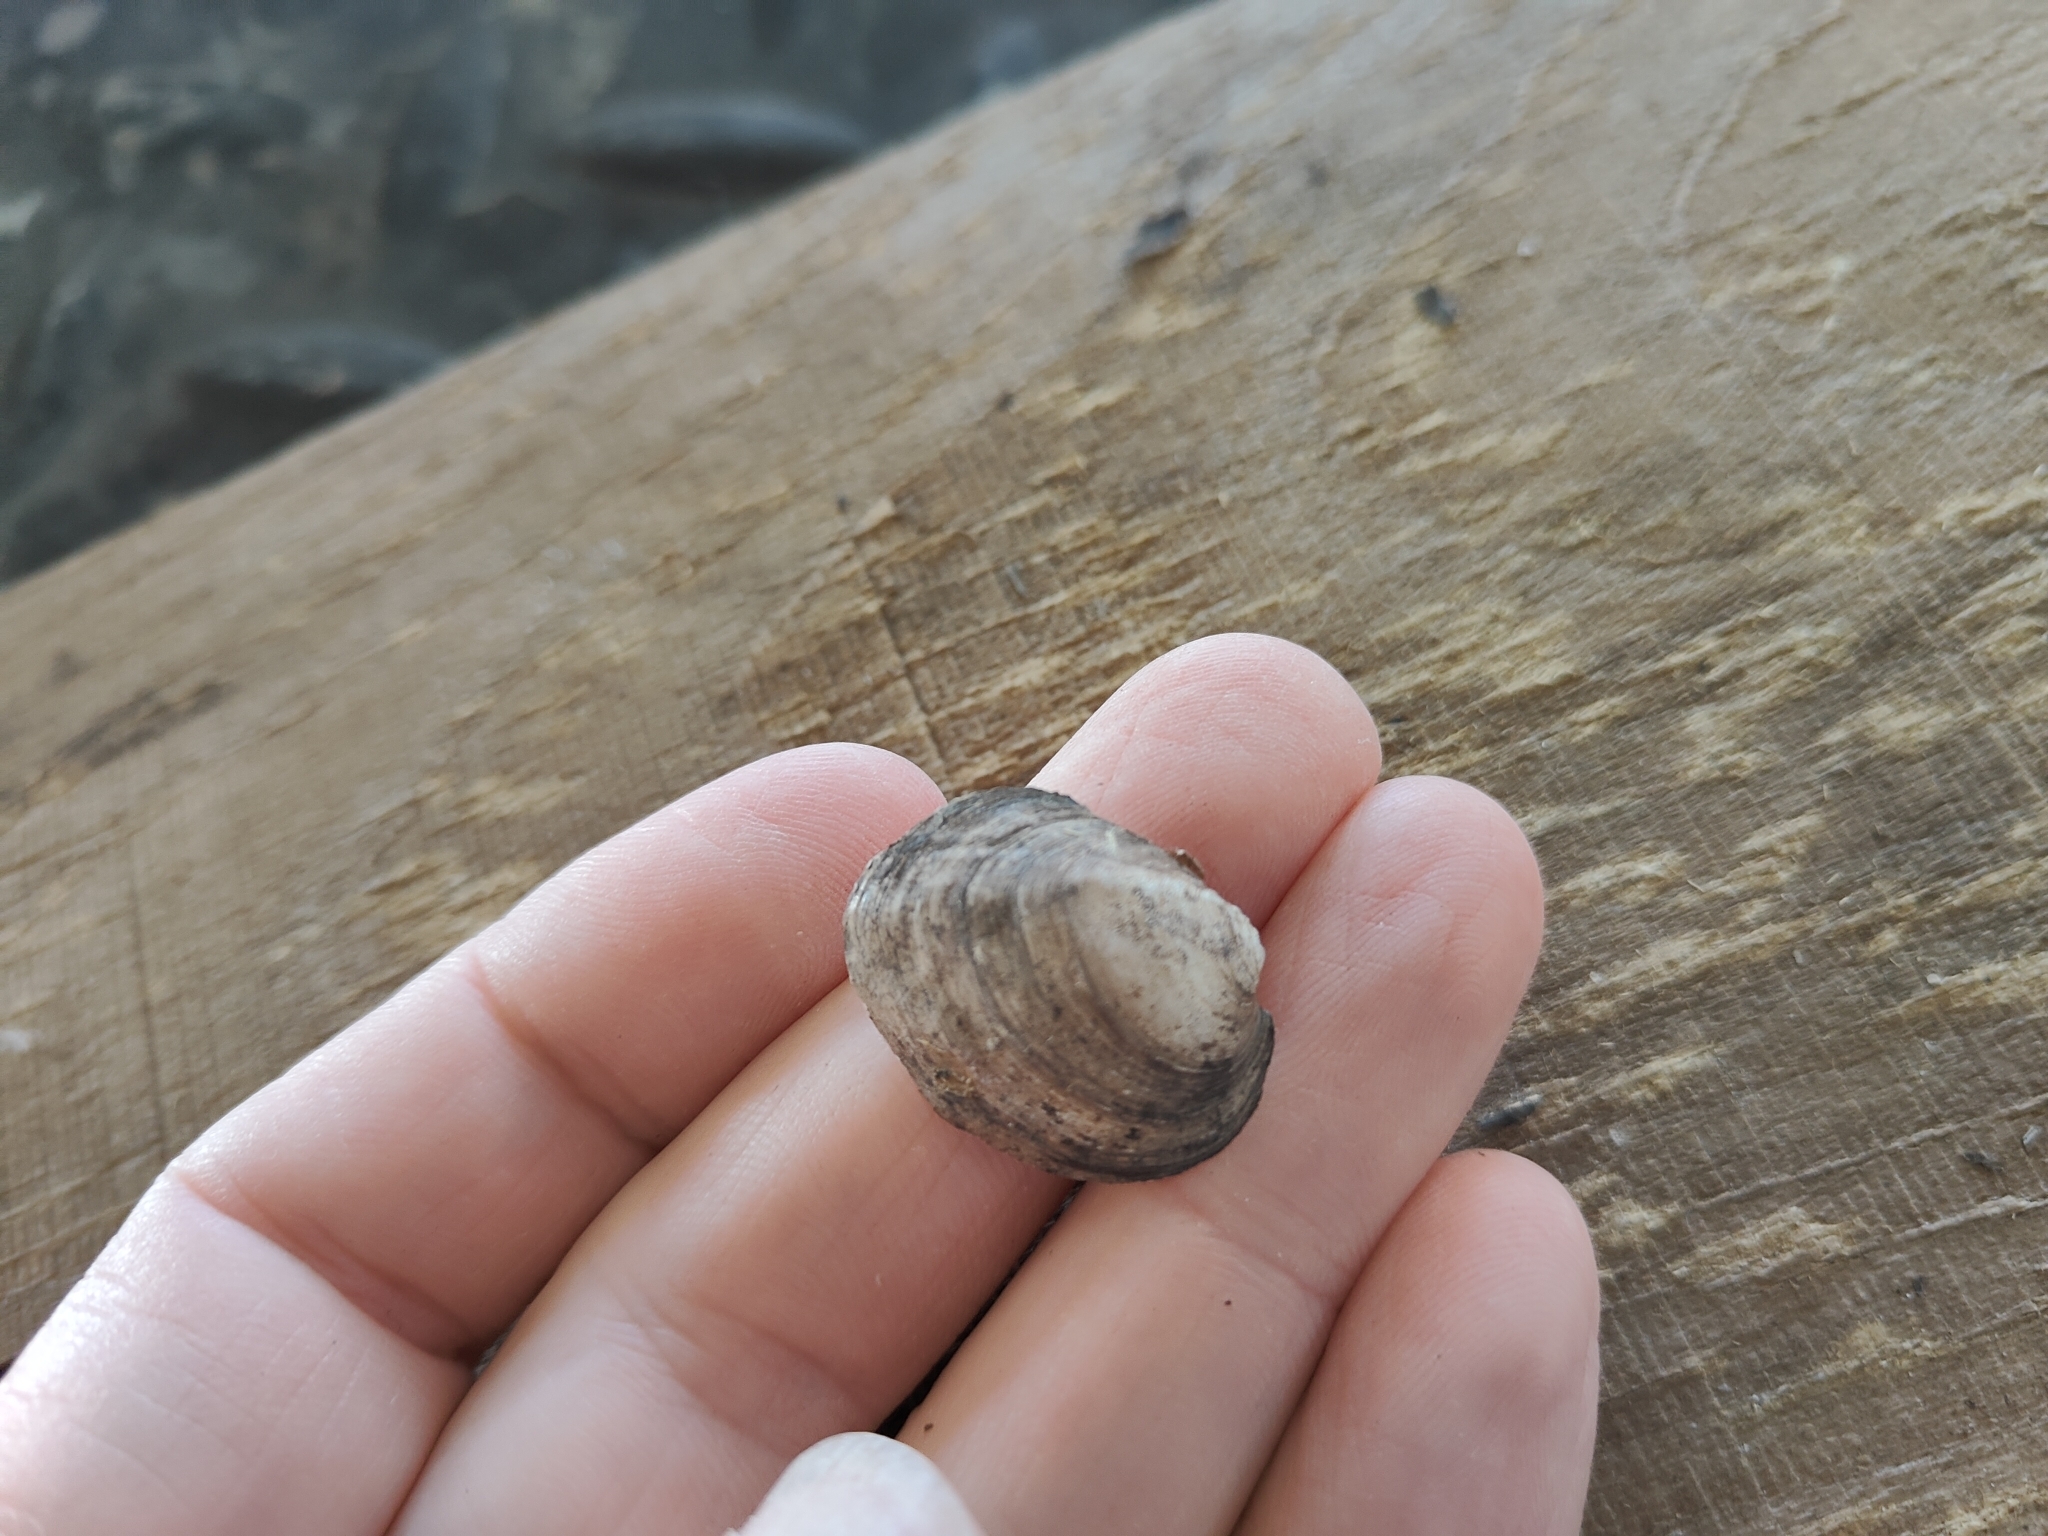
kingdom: Animalia
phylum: Mollusca
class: Bivalvia
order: Unionida
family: Unionidae
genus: Amblema
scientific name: Amblema plicata
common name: Threeridge
